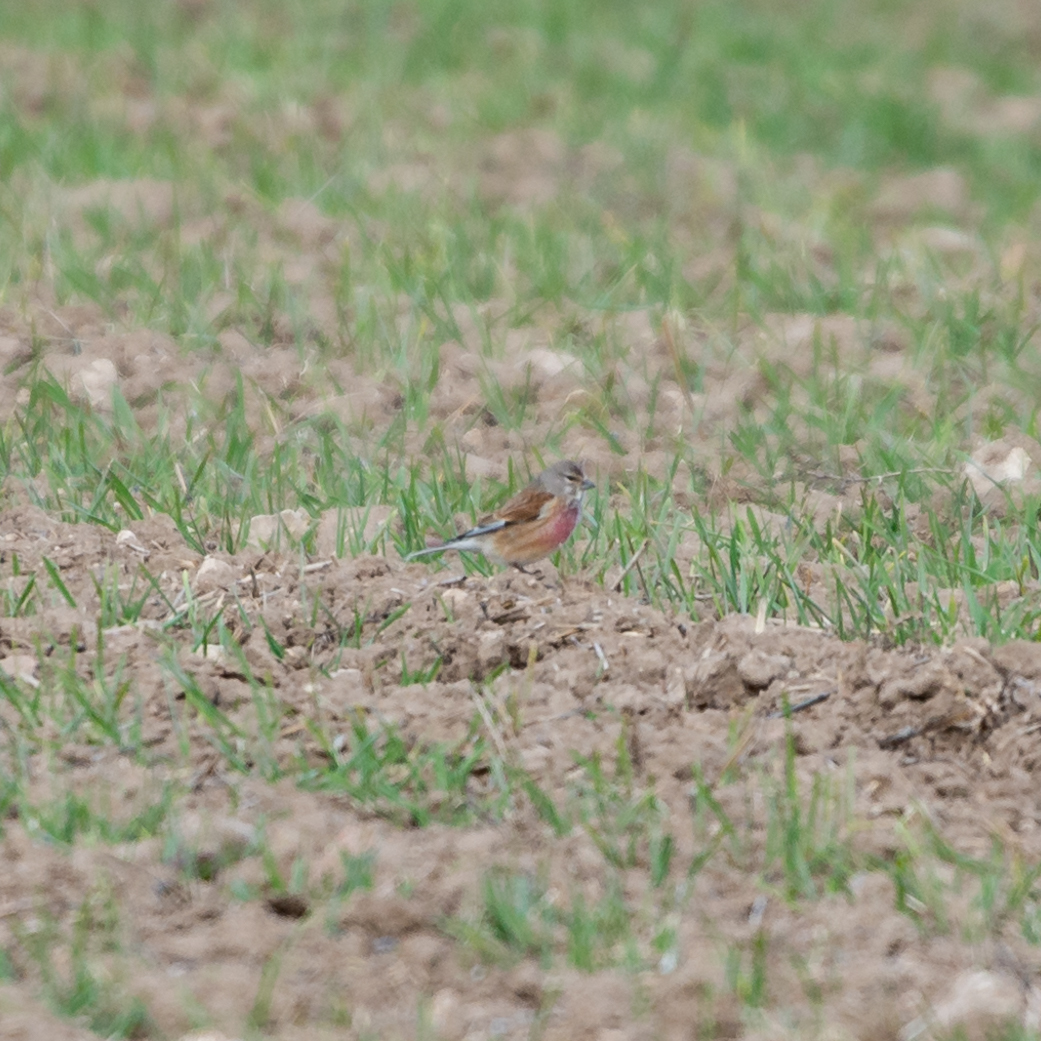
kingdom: Animalia
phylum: Chordata
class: Aves
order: Passeriformes
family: Fringillidae
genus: Linaria
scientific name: Linaria cannabina
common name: Common linnet
